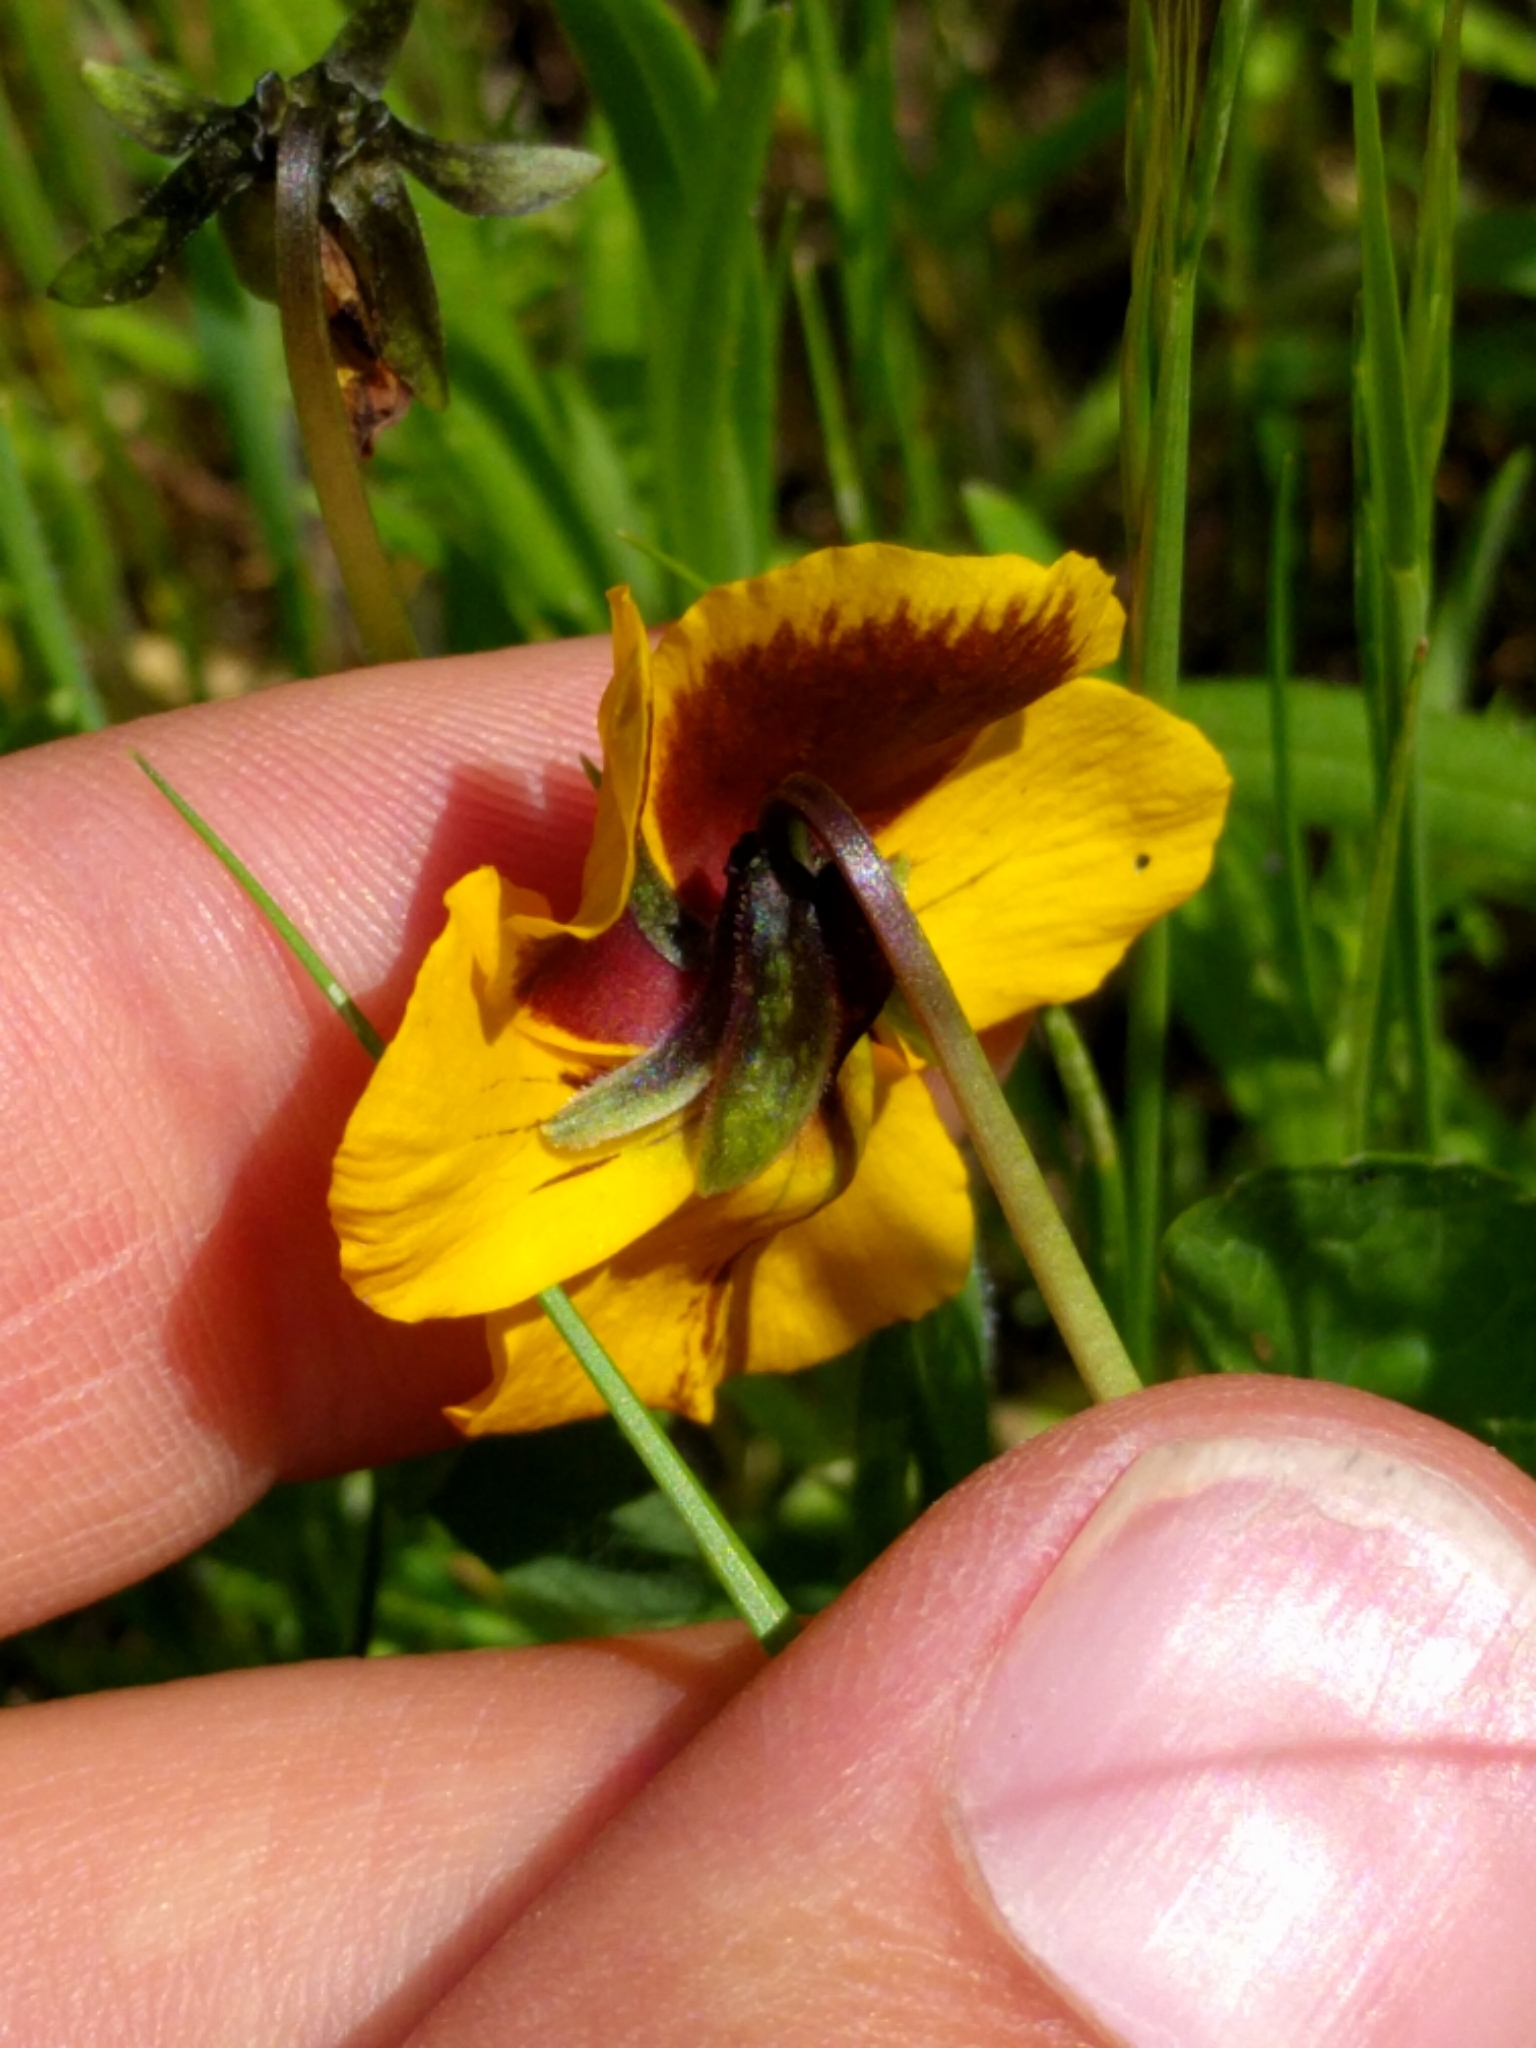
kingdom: Plantae
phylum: Tracheophyta
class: Magnoliopsida
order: Malpighiales
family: Violaceae
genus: Viola
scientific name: Viola pedunculata
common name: California golden violet
